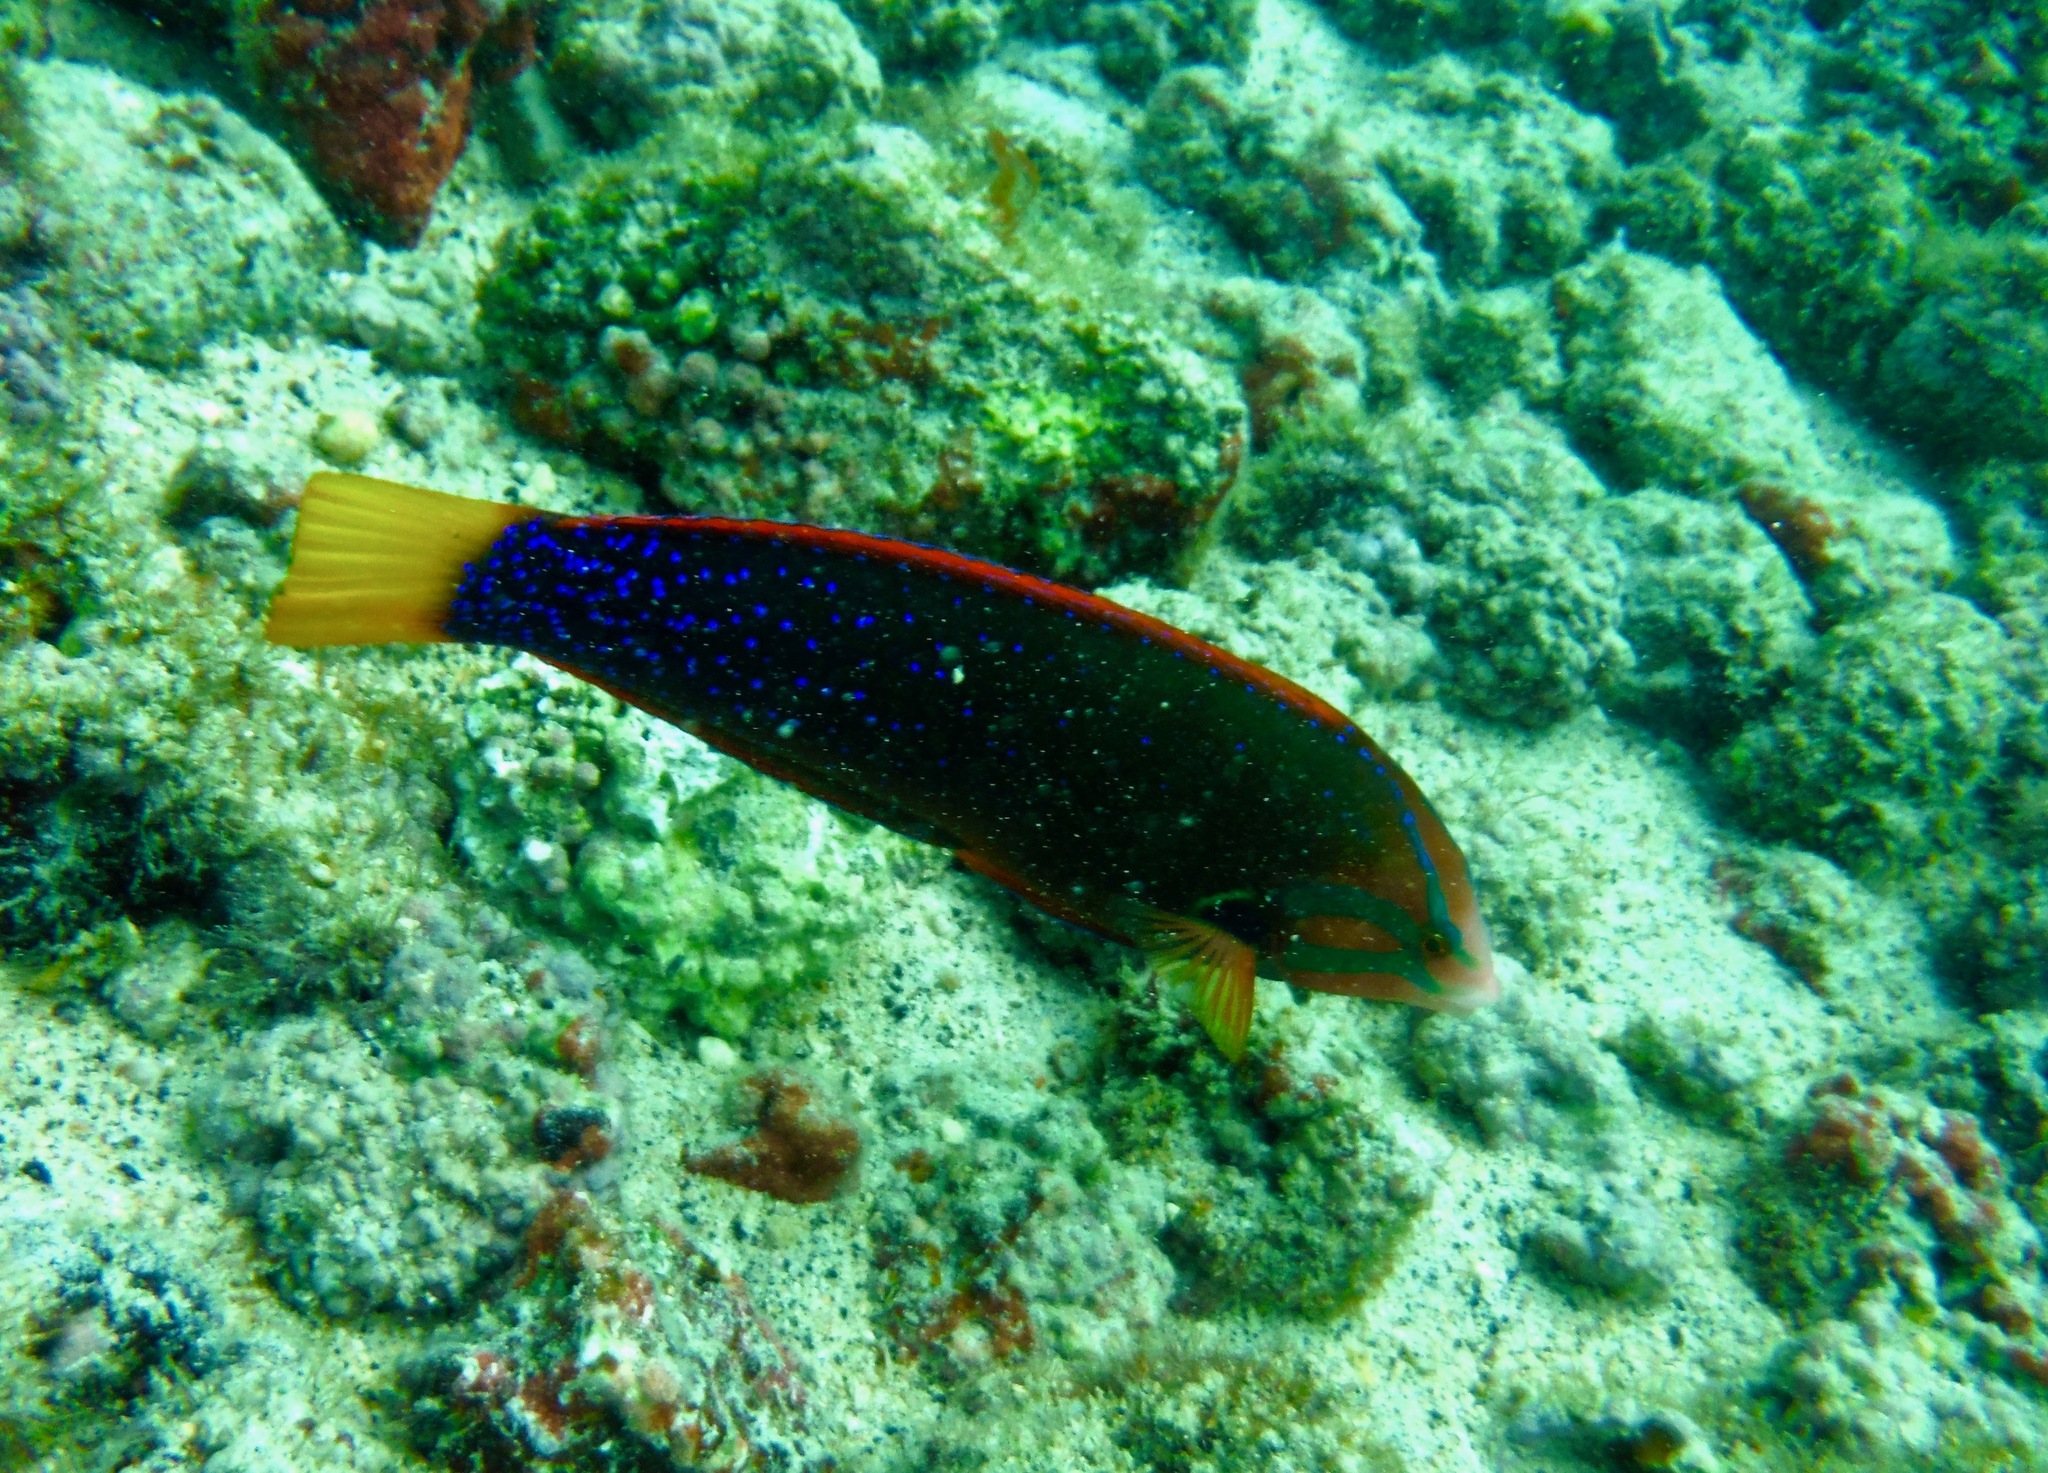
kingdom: Animalia
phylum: Chordata
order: Perciformes
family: Labridae
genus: Coris
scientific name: Coris gaimard
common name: Yellowtail coris
